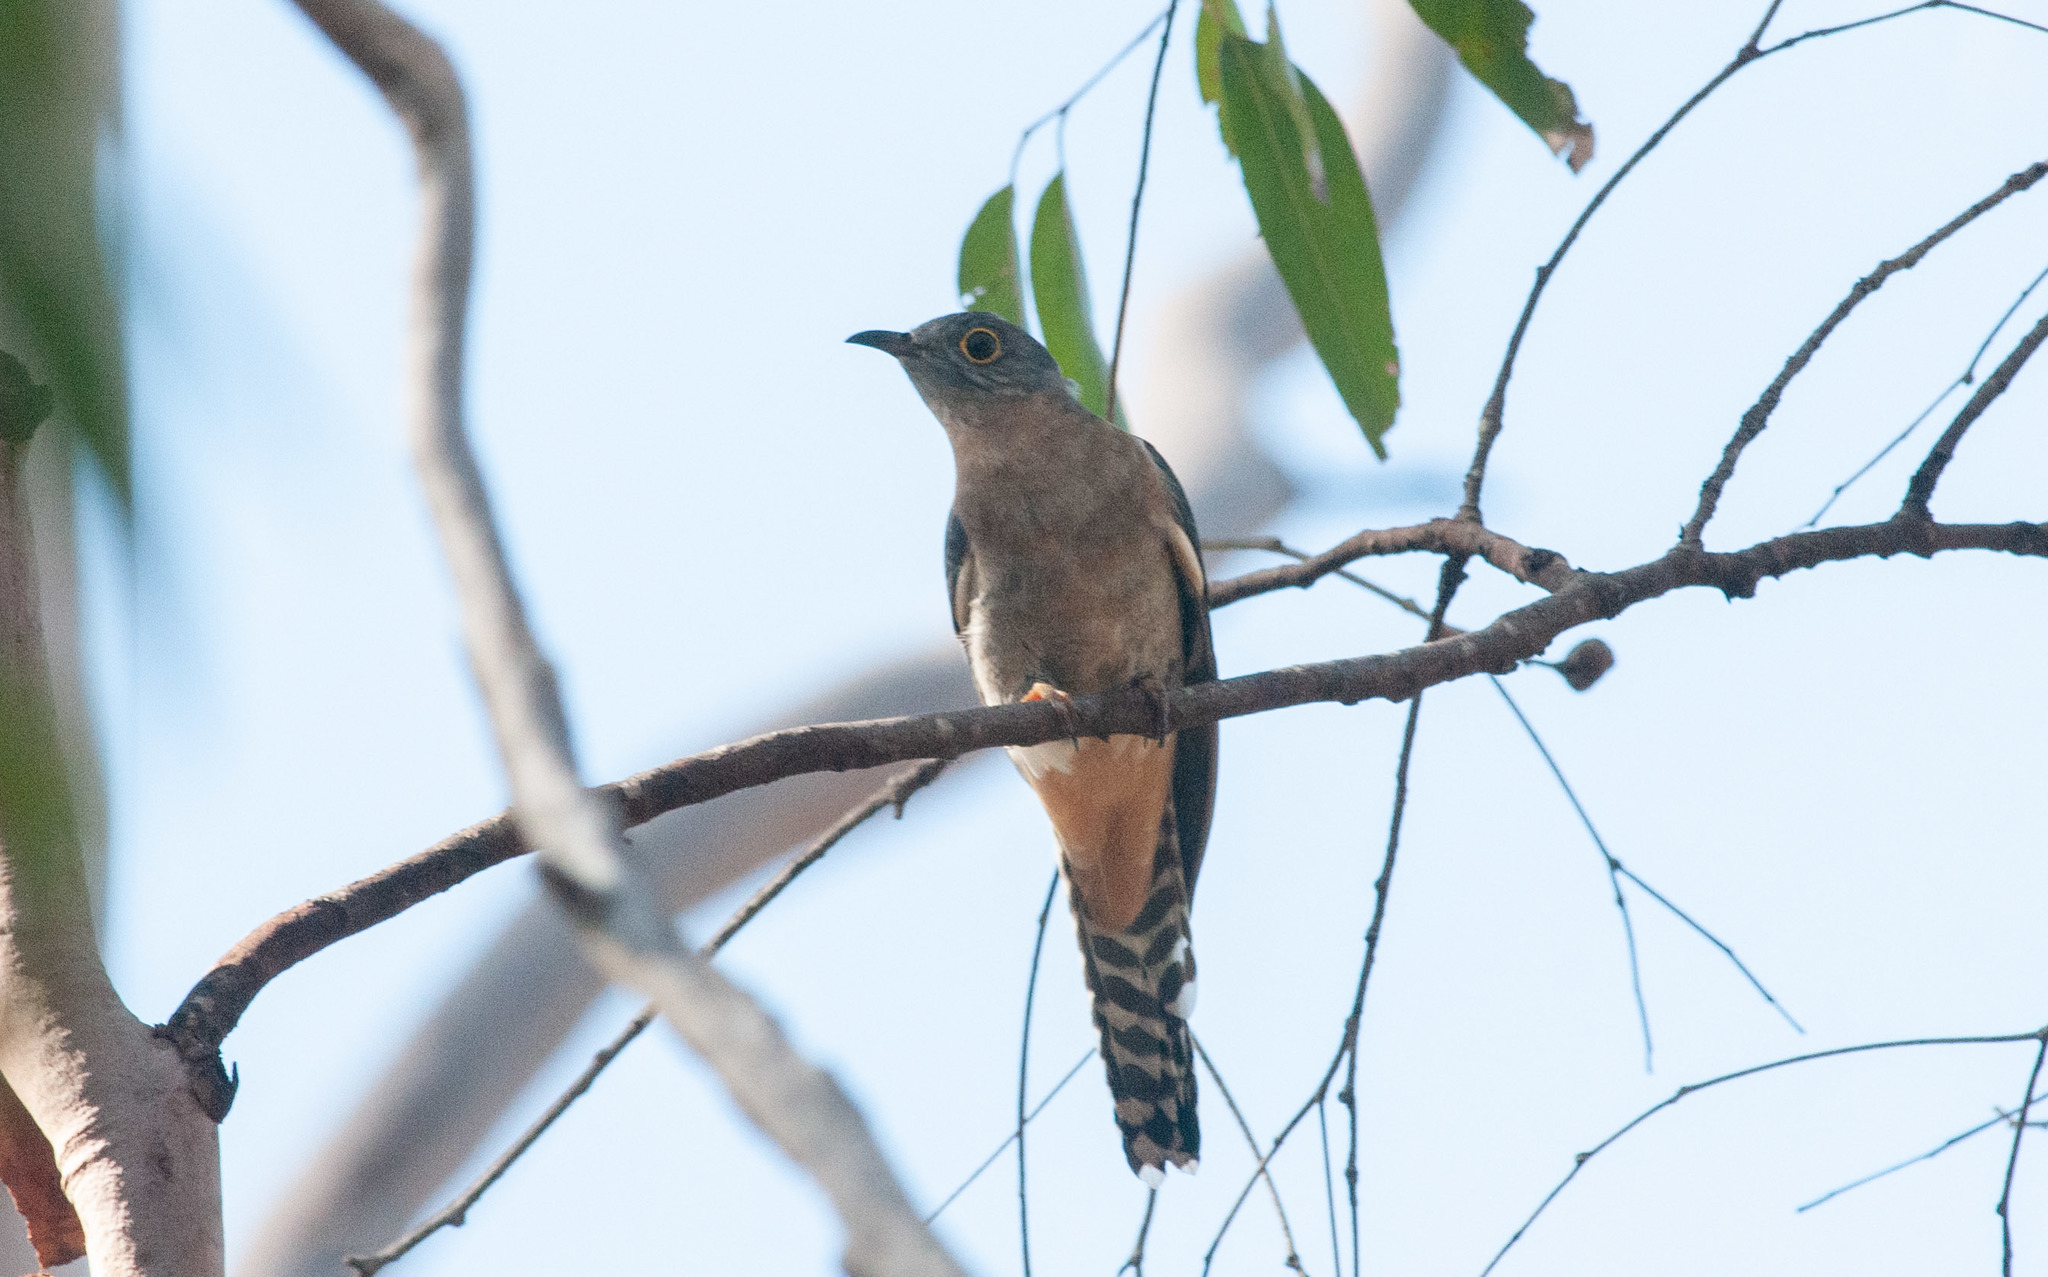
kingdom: Animalia
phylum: Chordata
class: Aves
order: Cuculiformes
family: Cuculidae
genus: Cacomantis
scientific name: Cacomantis flabelliformis
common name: Fan-tailed cuckoo
